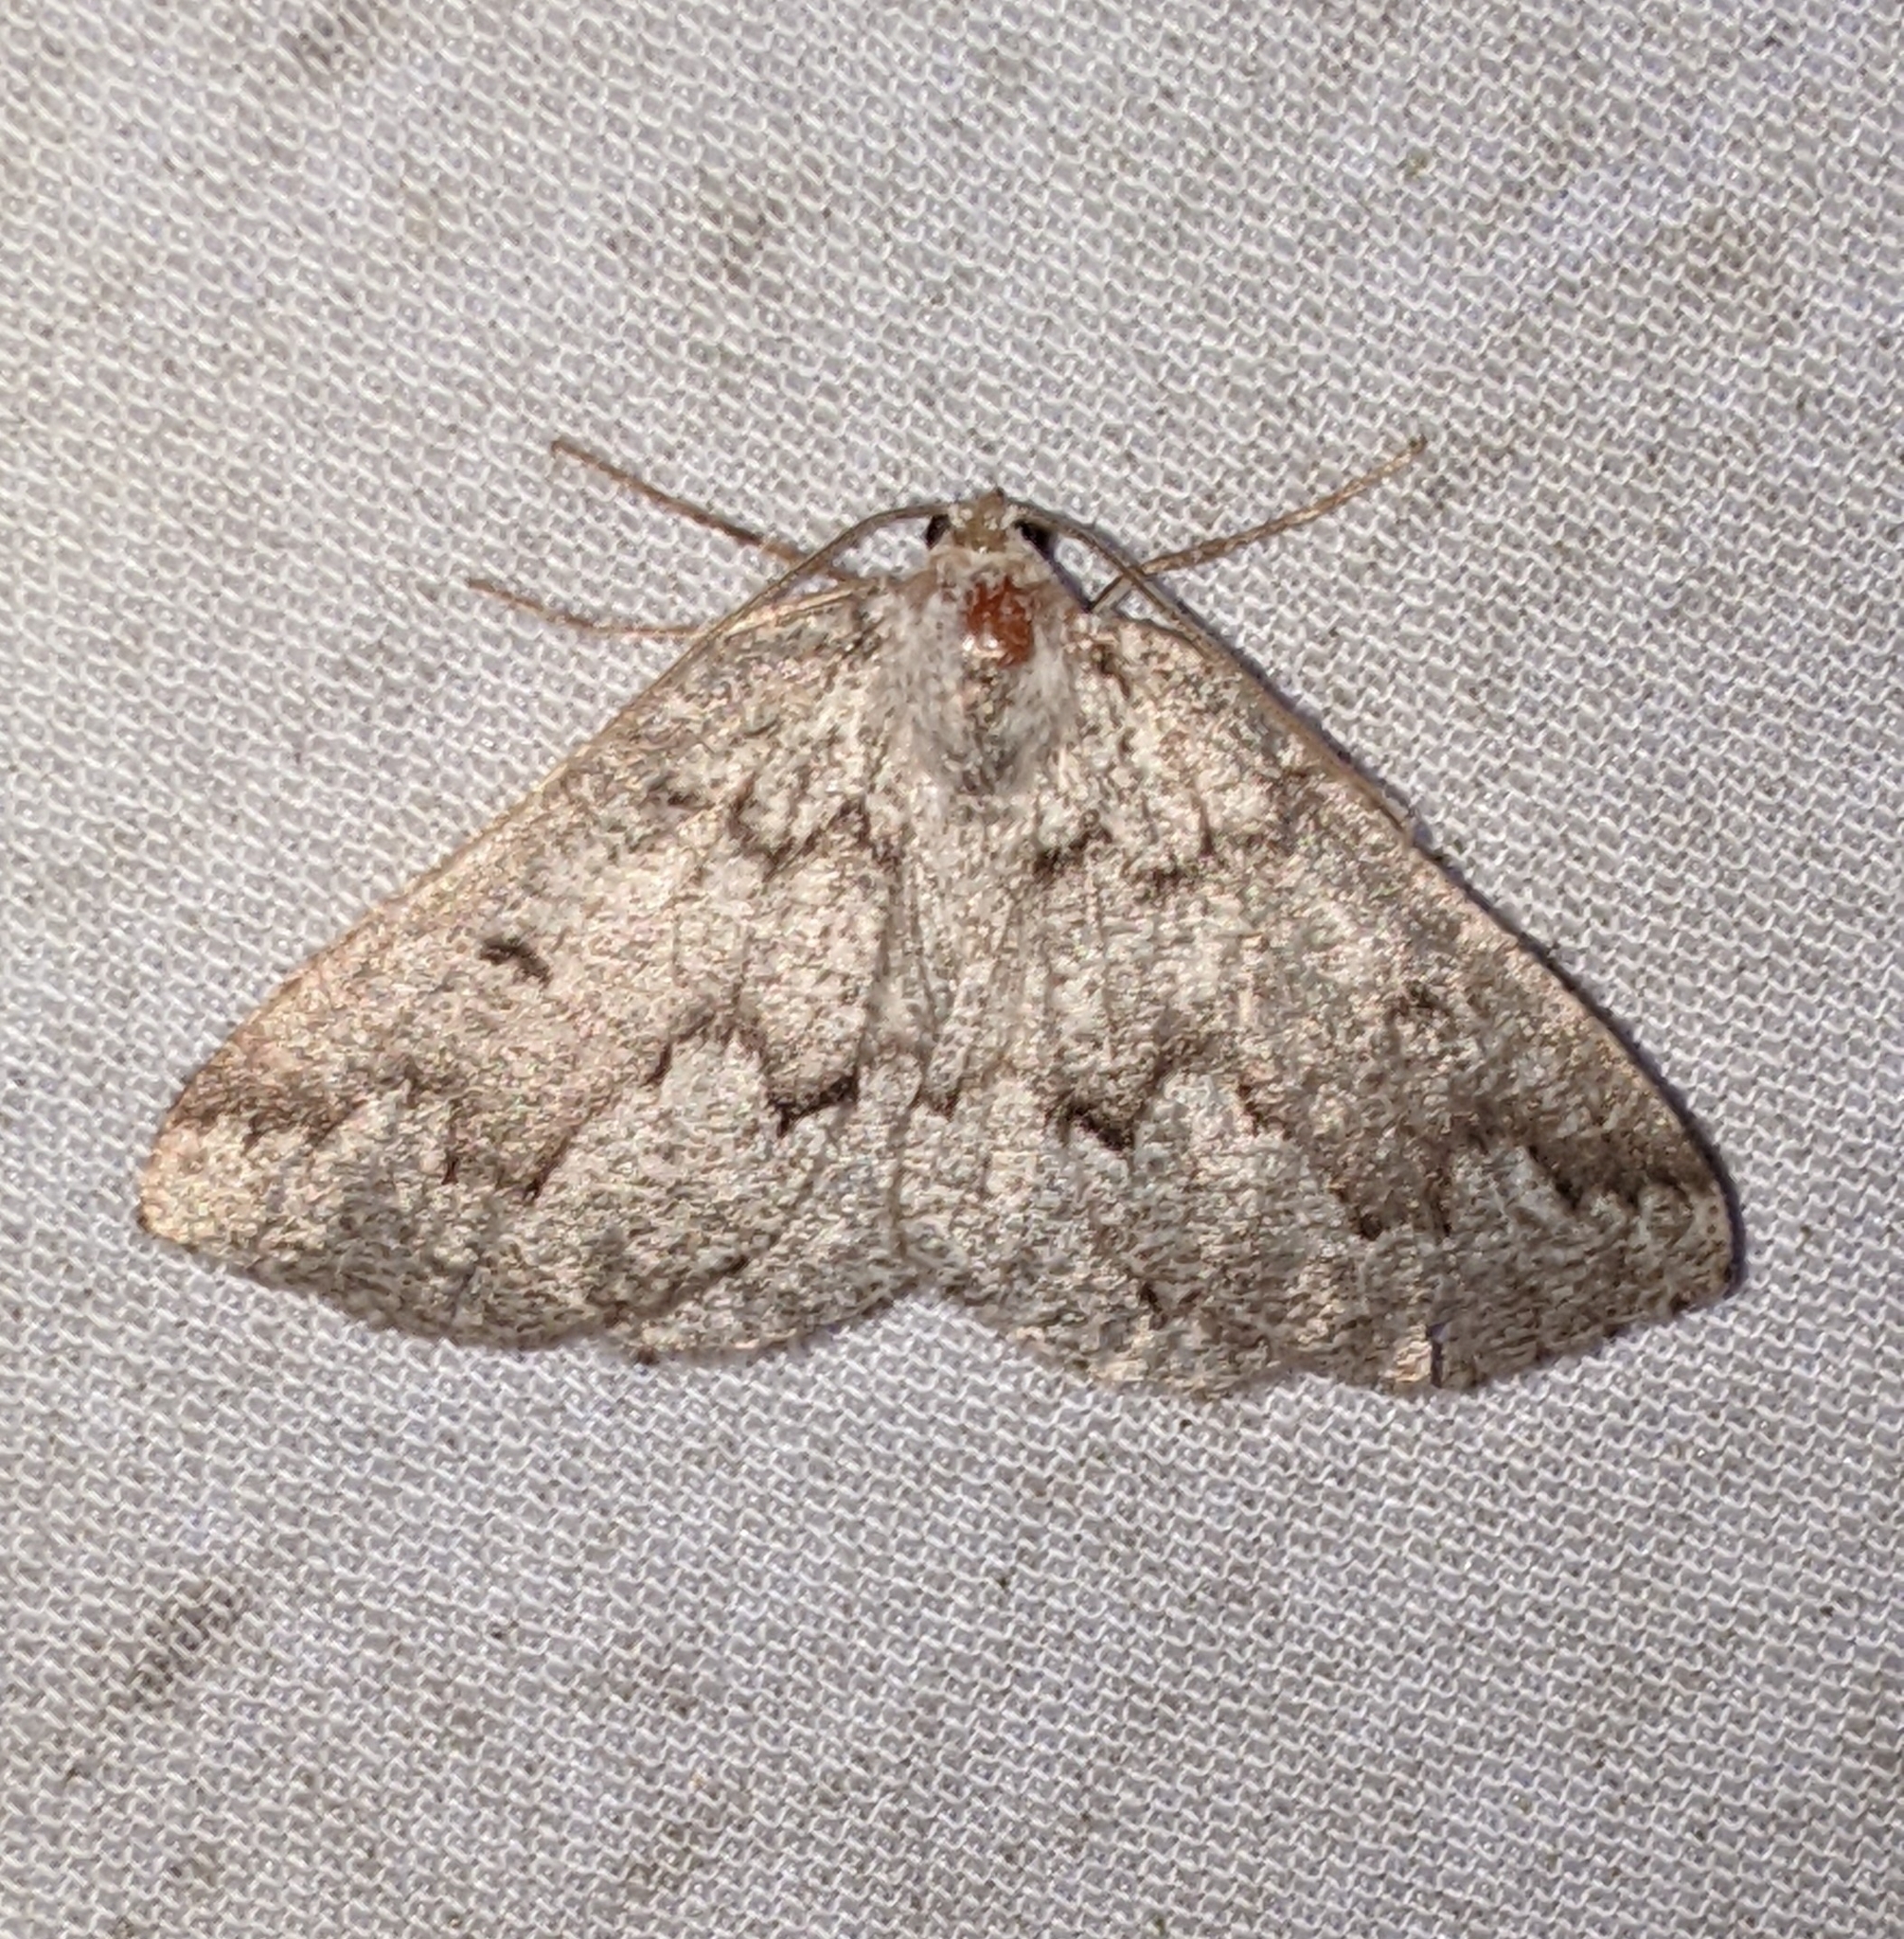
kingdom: Animalia
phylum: Arthropoda
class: Insecta
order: Lepidoptera
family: Geometridae
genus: Sabulodes
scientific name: Sabulodes
